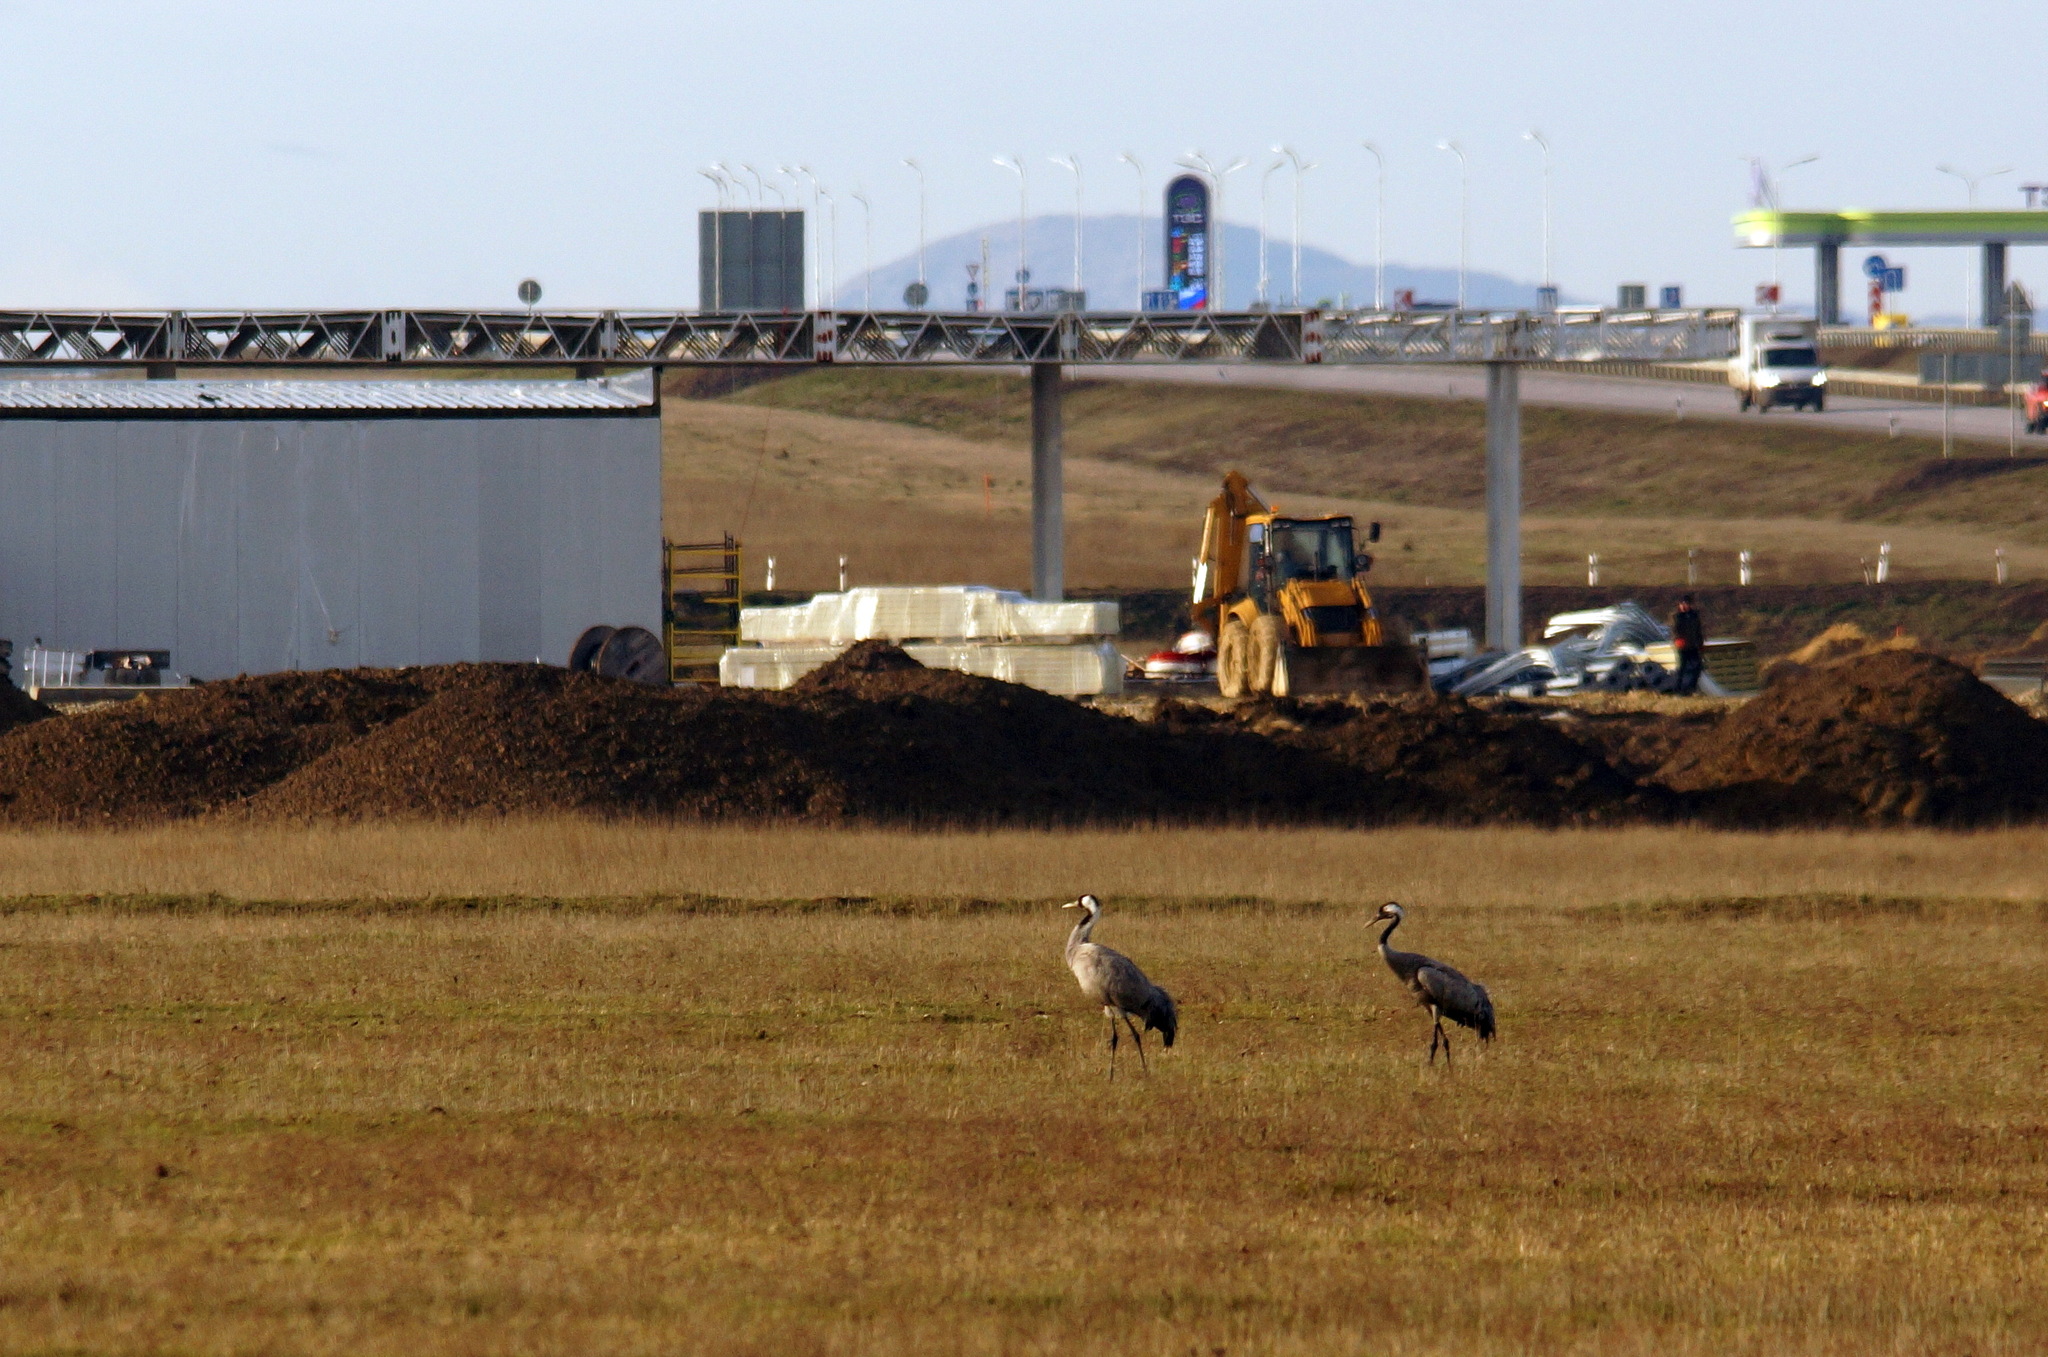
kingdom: Animalia
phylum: Chordata
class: Aves
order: Gruiformes
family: Gruidae
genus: Grus
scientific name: Grus grus
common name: Common crane
